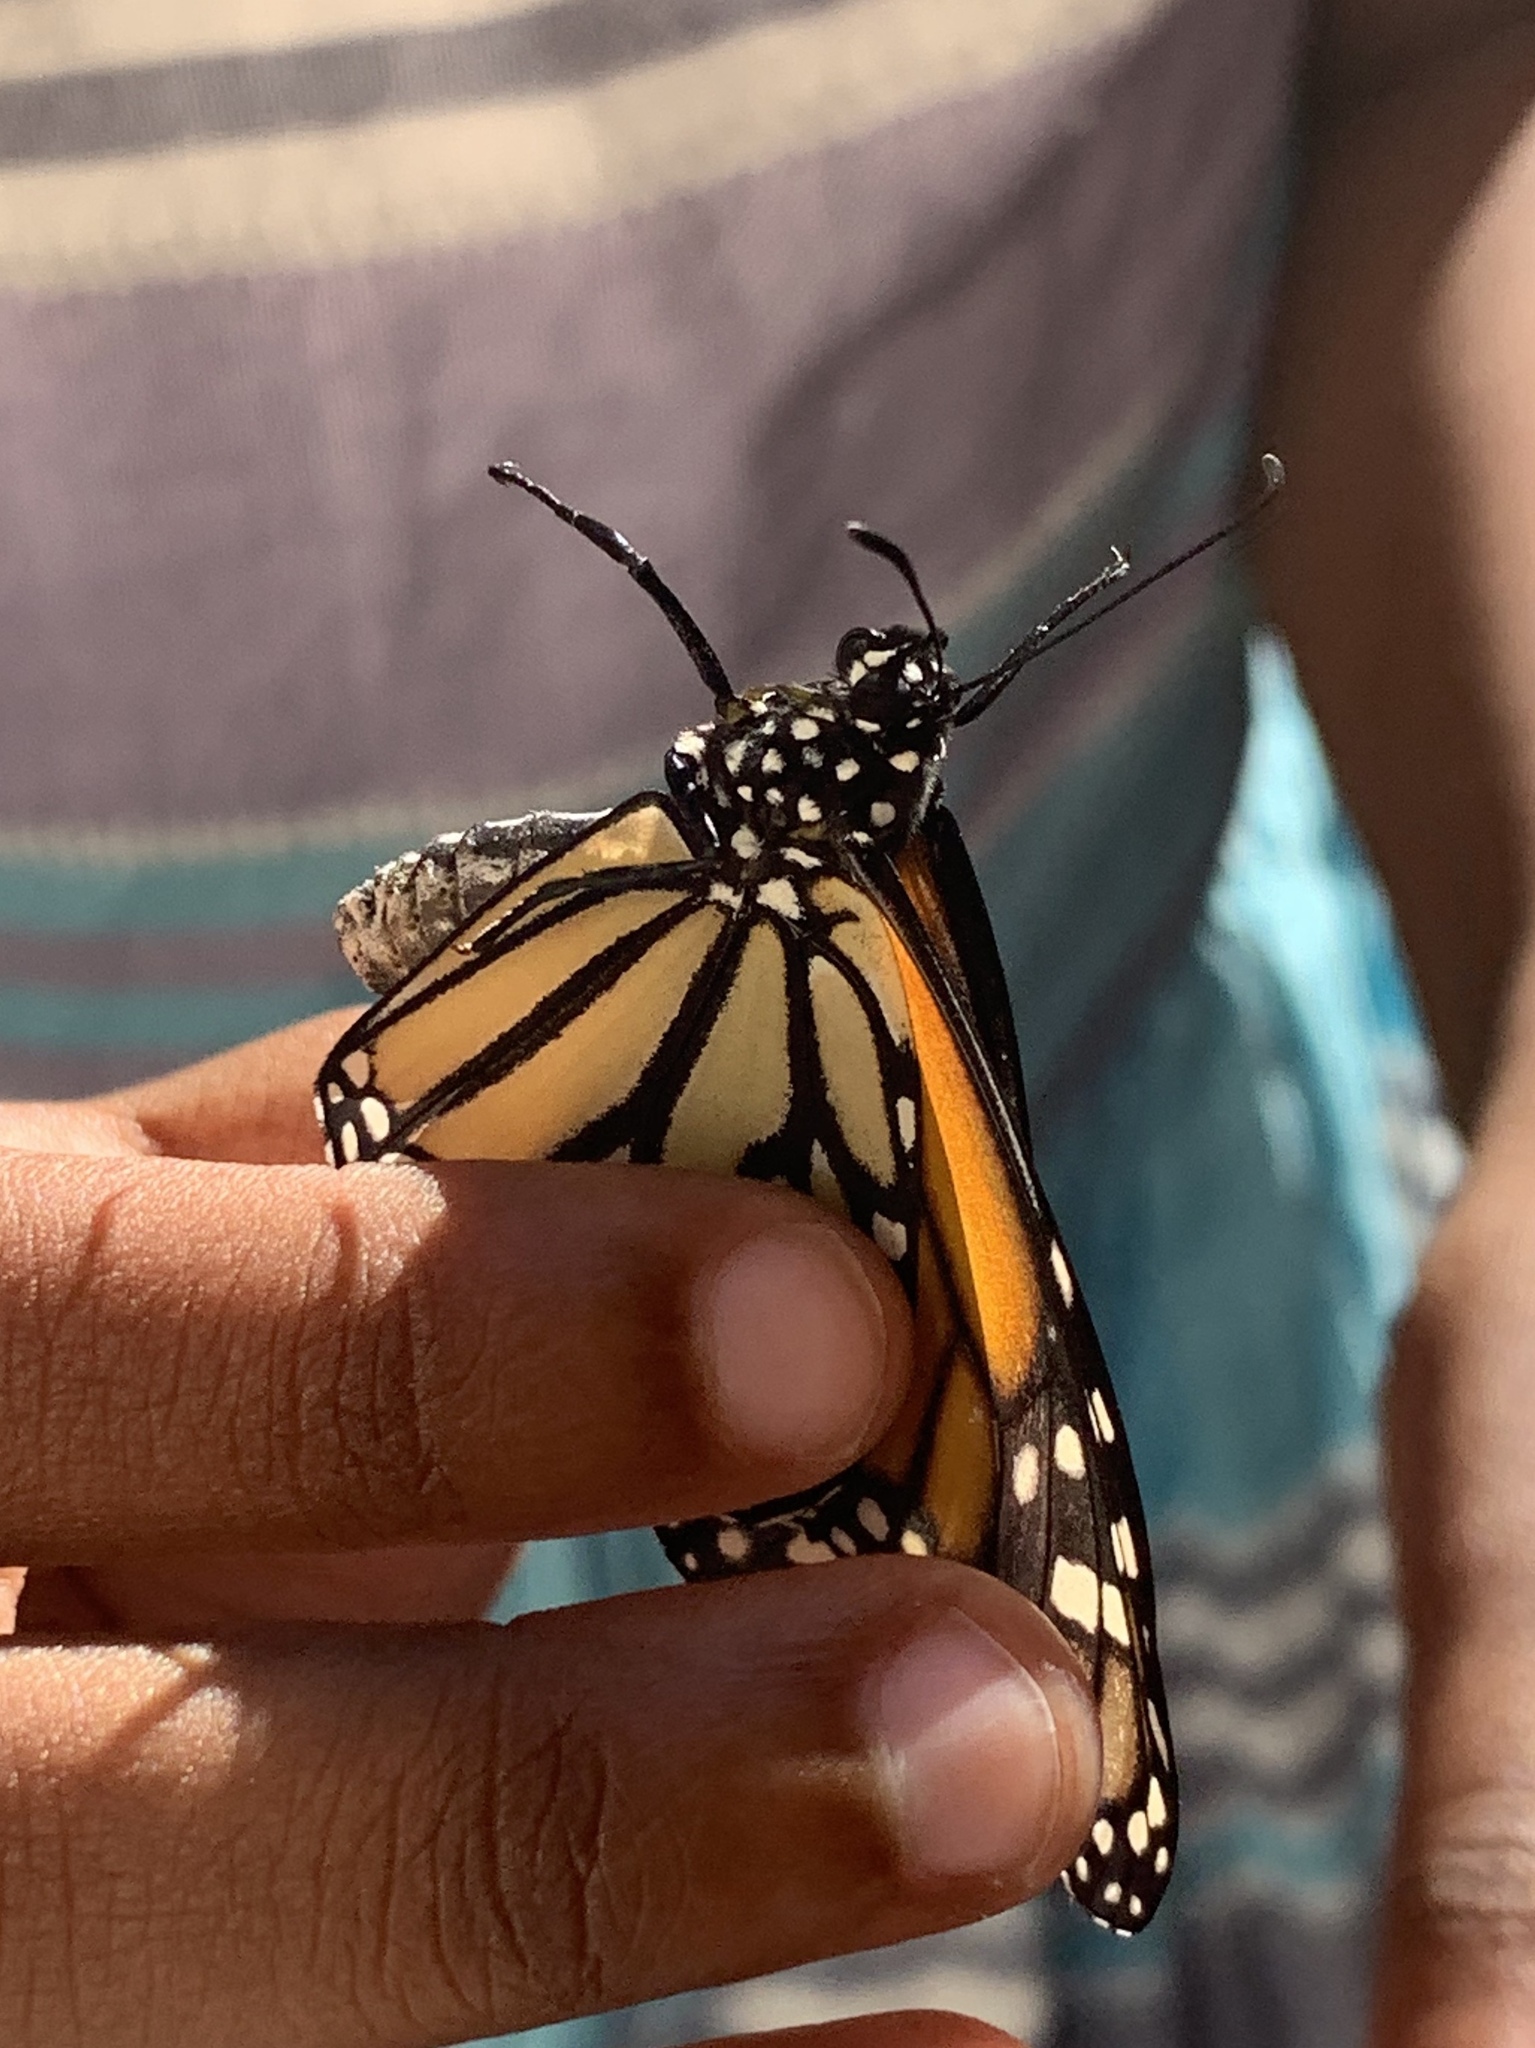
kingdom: Animalia
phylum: Arthropoda
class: Insecta
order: Lepidoptera
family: Nymphalidae
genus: Danaus
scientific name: Danaus plexippus
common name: Monarch
